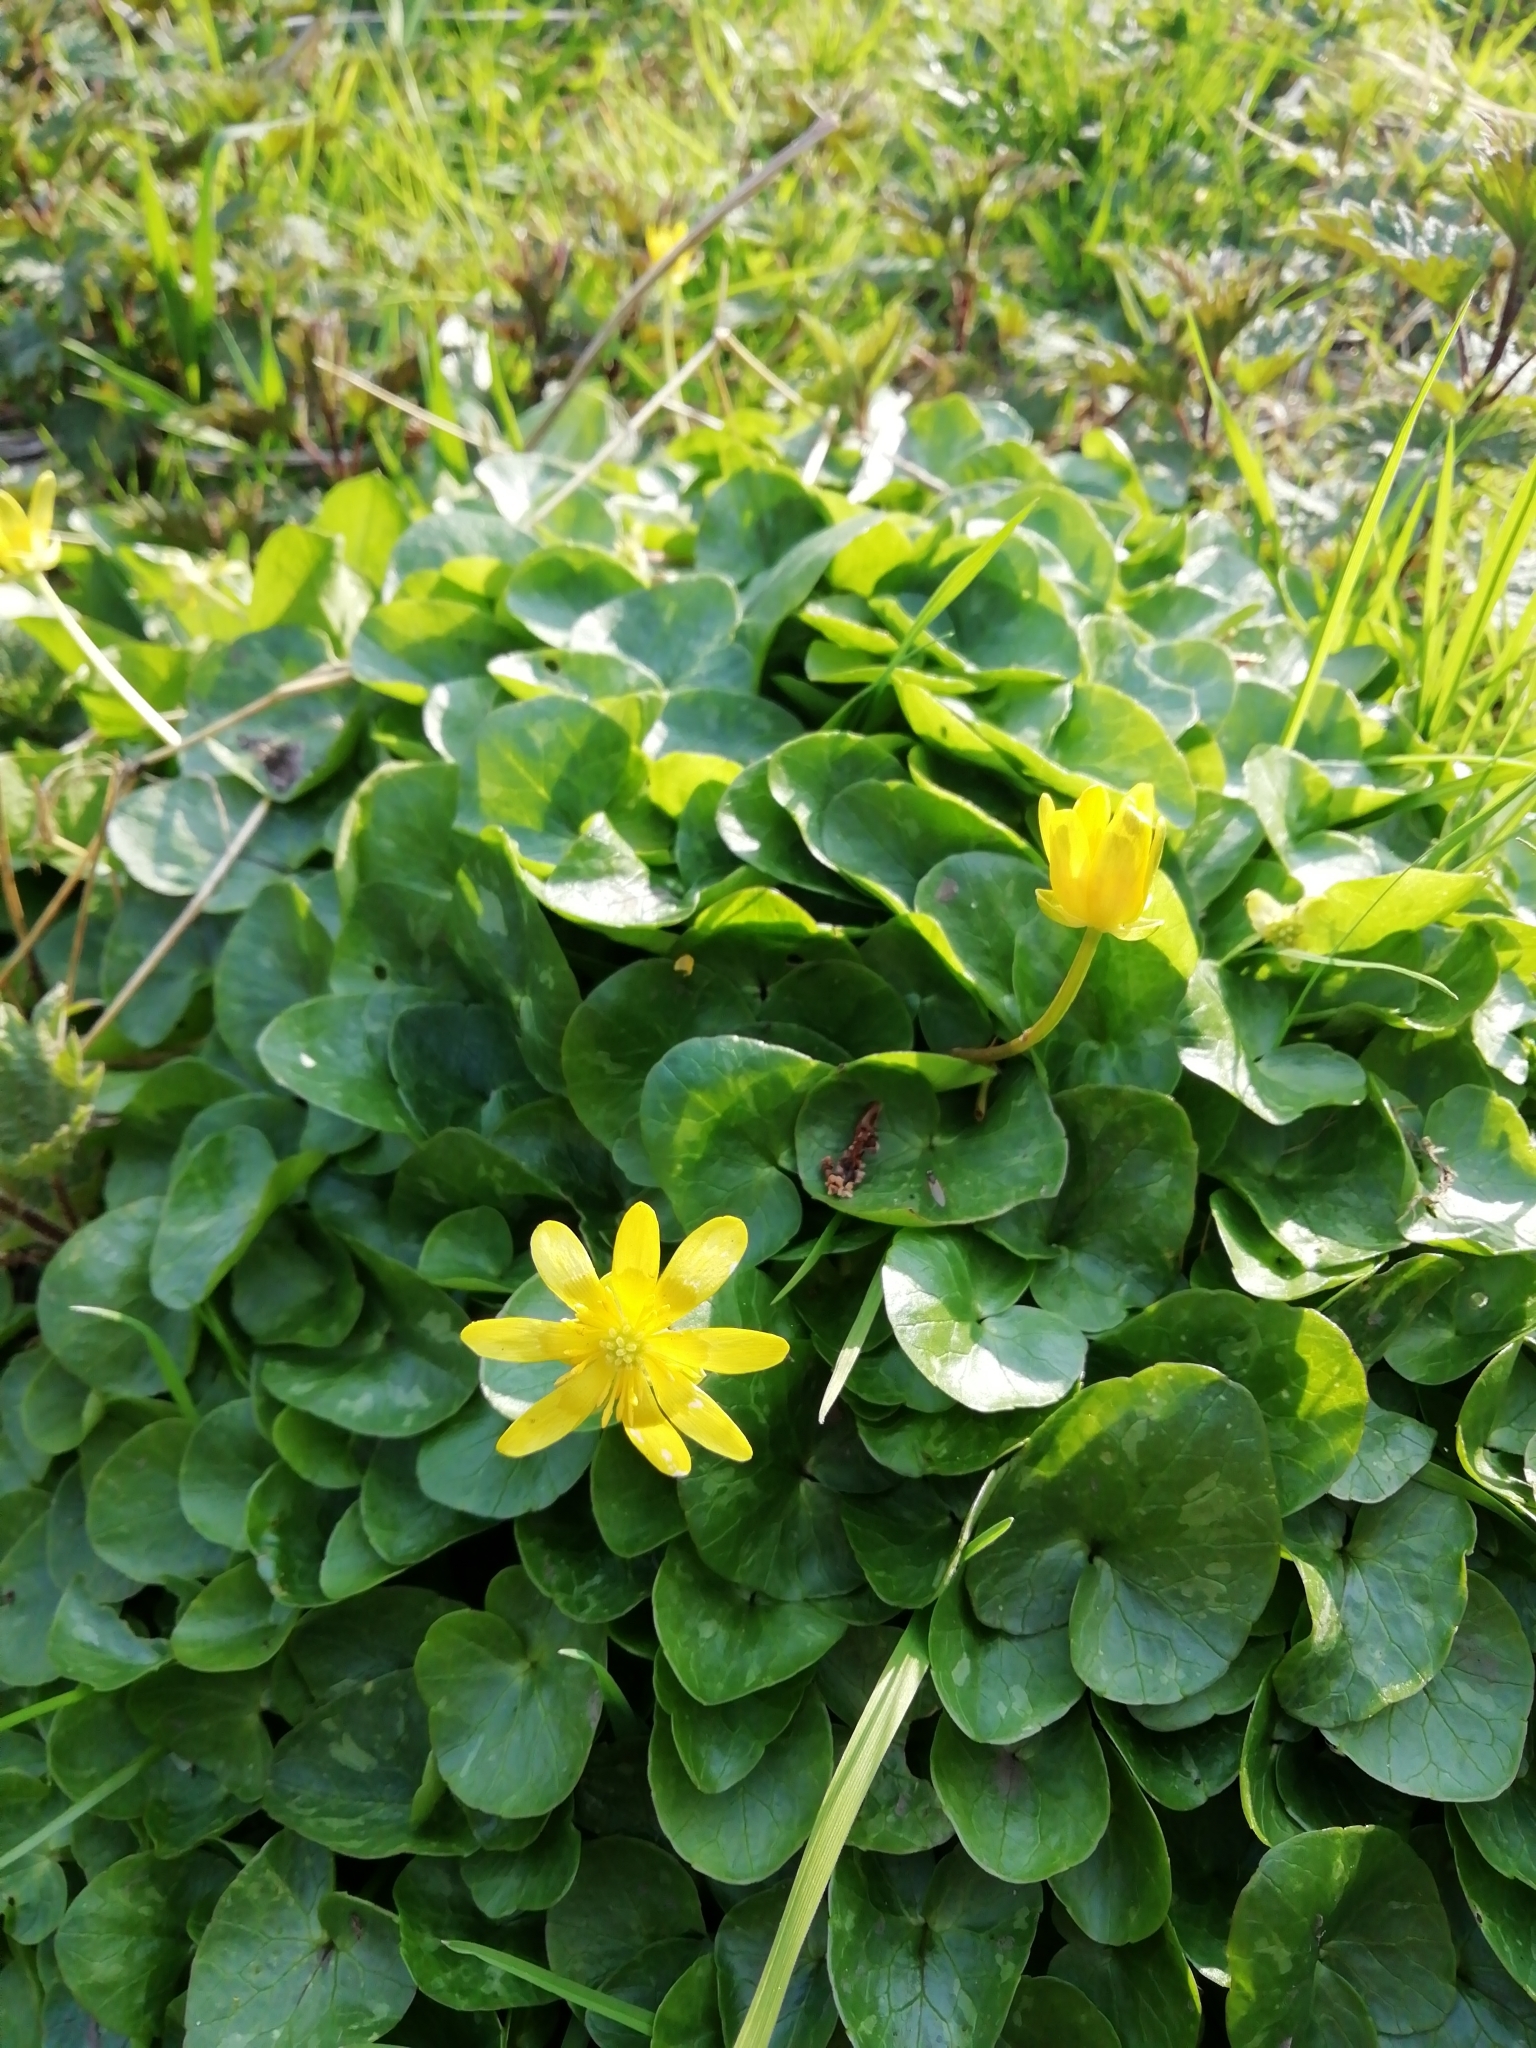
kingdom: Plantae
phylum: Tracheophyta
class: Magnoliopsida
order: Ranunculales
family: Ranunculaceae
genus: Ficaria
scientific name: Ficaria verna
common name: Lesser celandine
